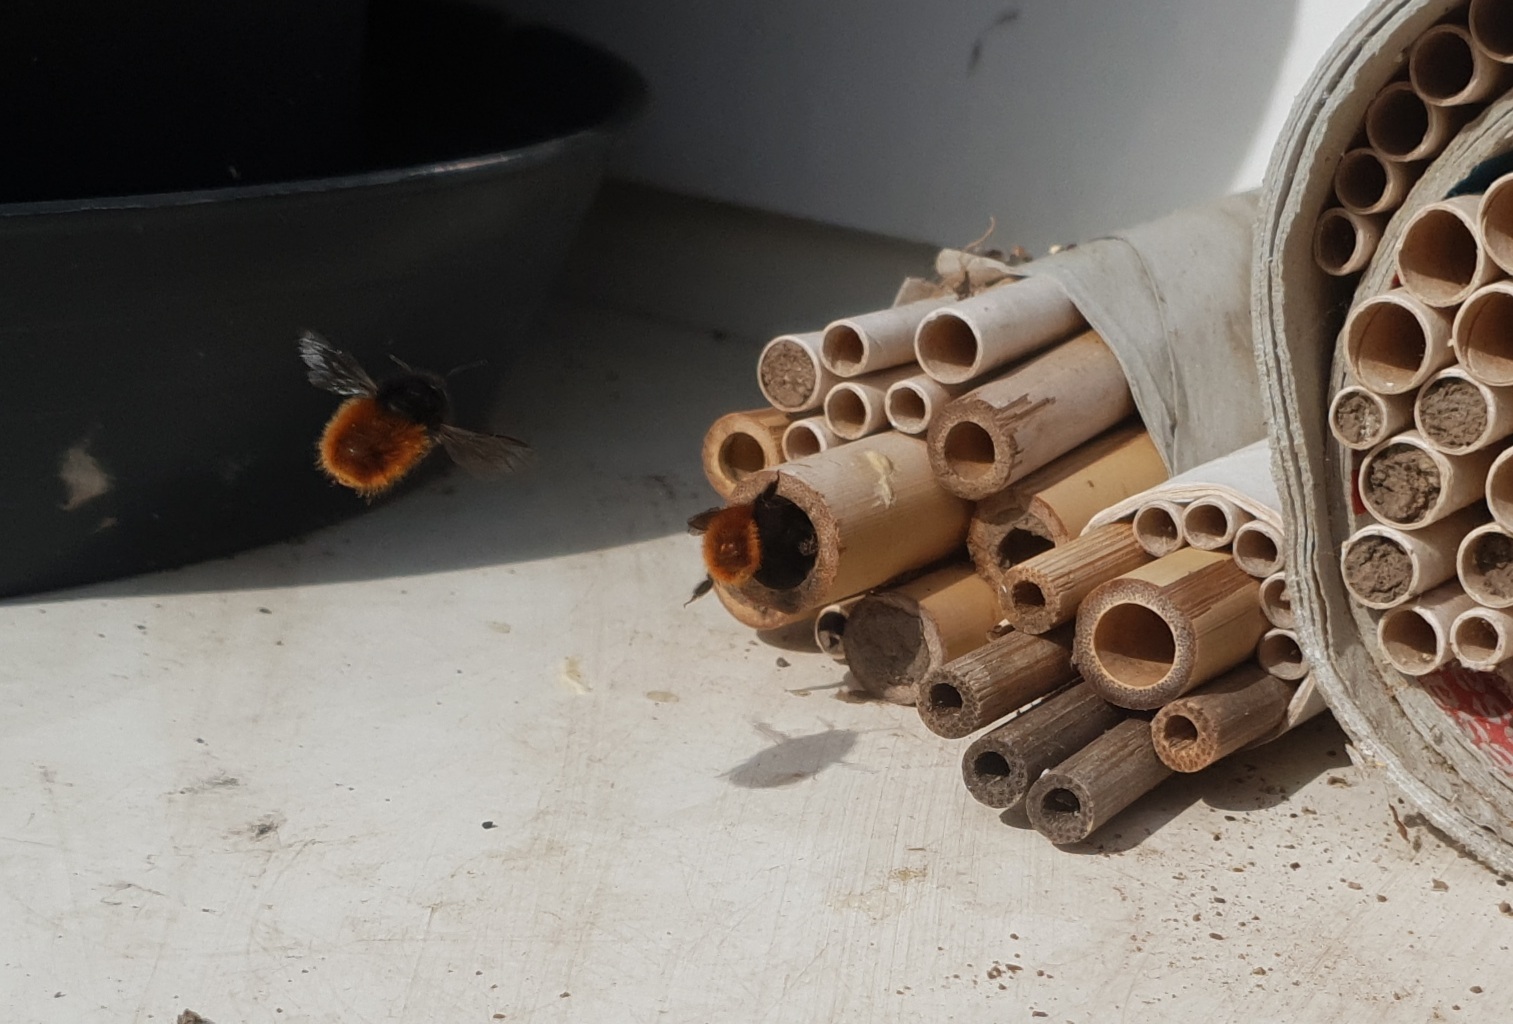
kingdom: Animalia
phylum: Arthropoda
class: Insecta
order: Hymenoptera
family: Megachilidae
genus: Osmia
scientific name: Osmia cornuta
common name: Mason bee
